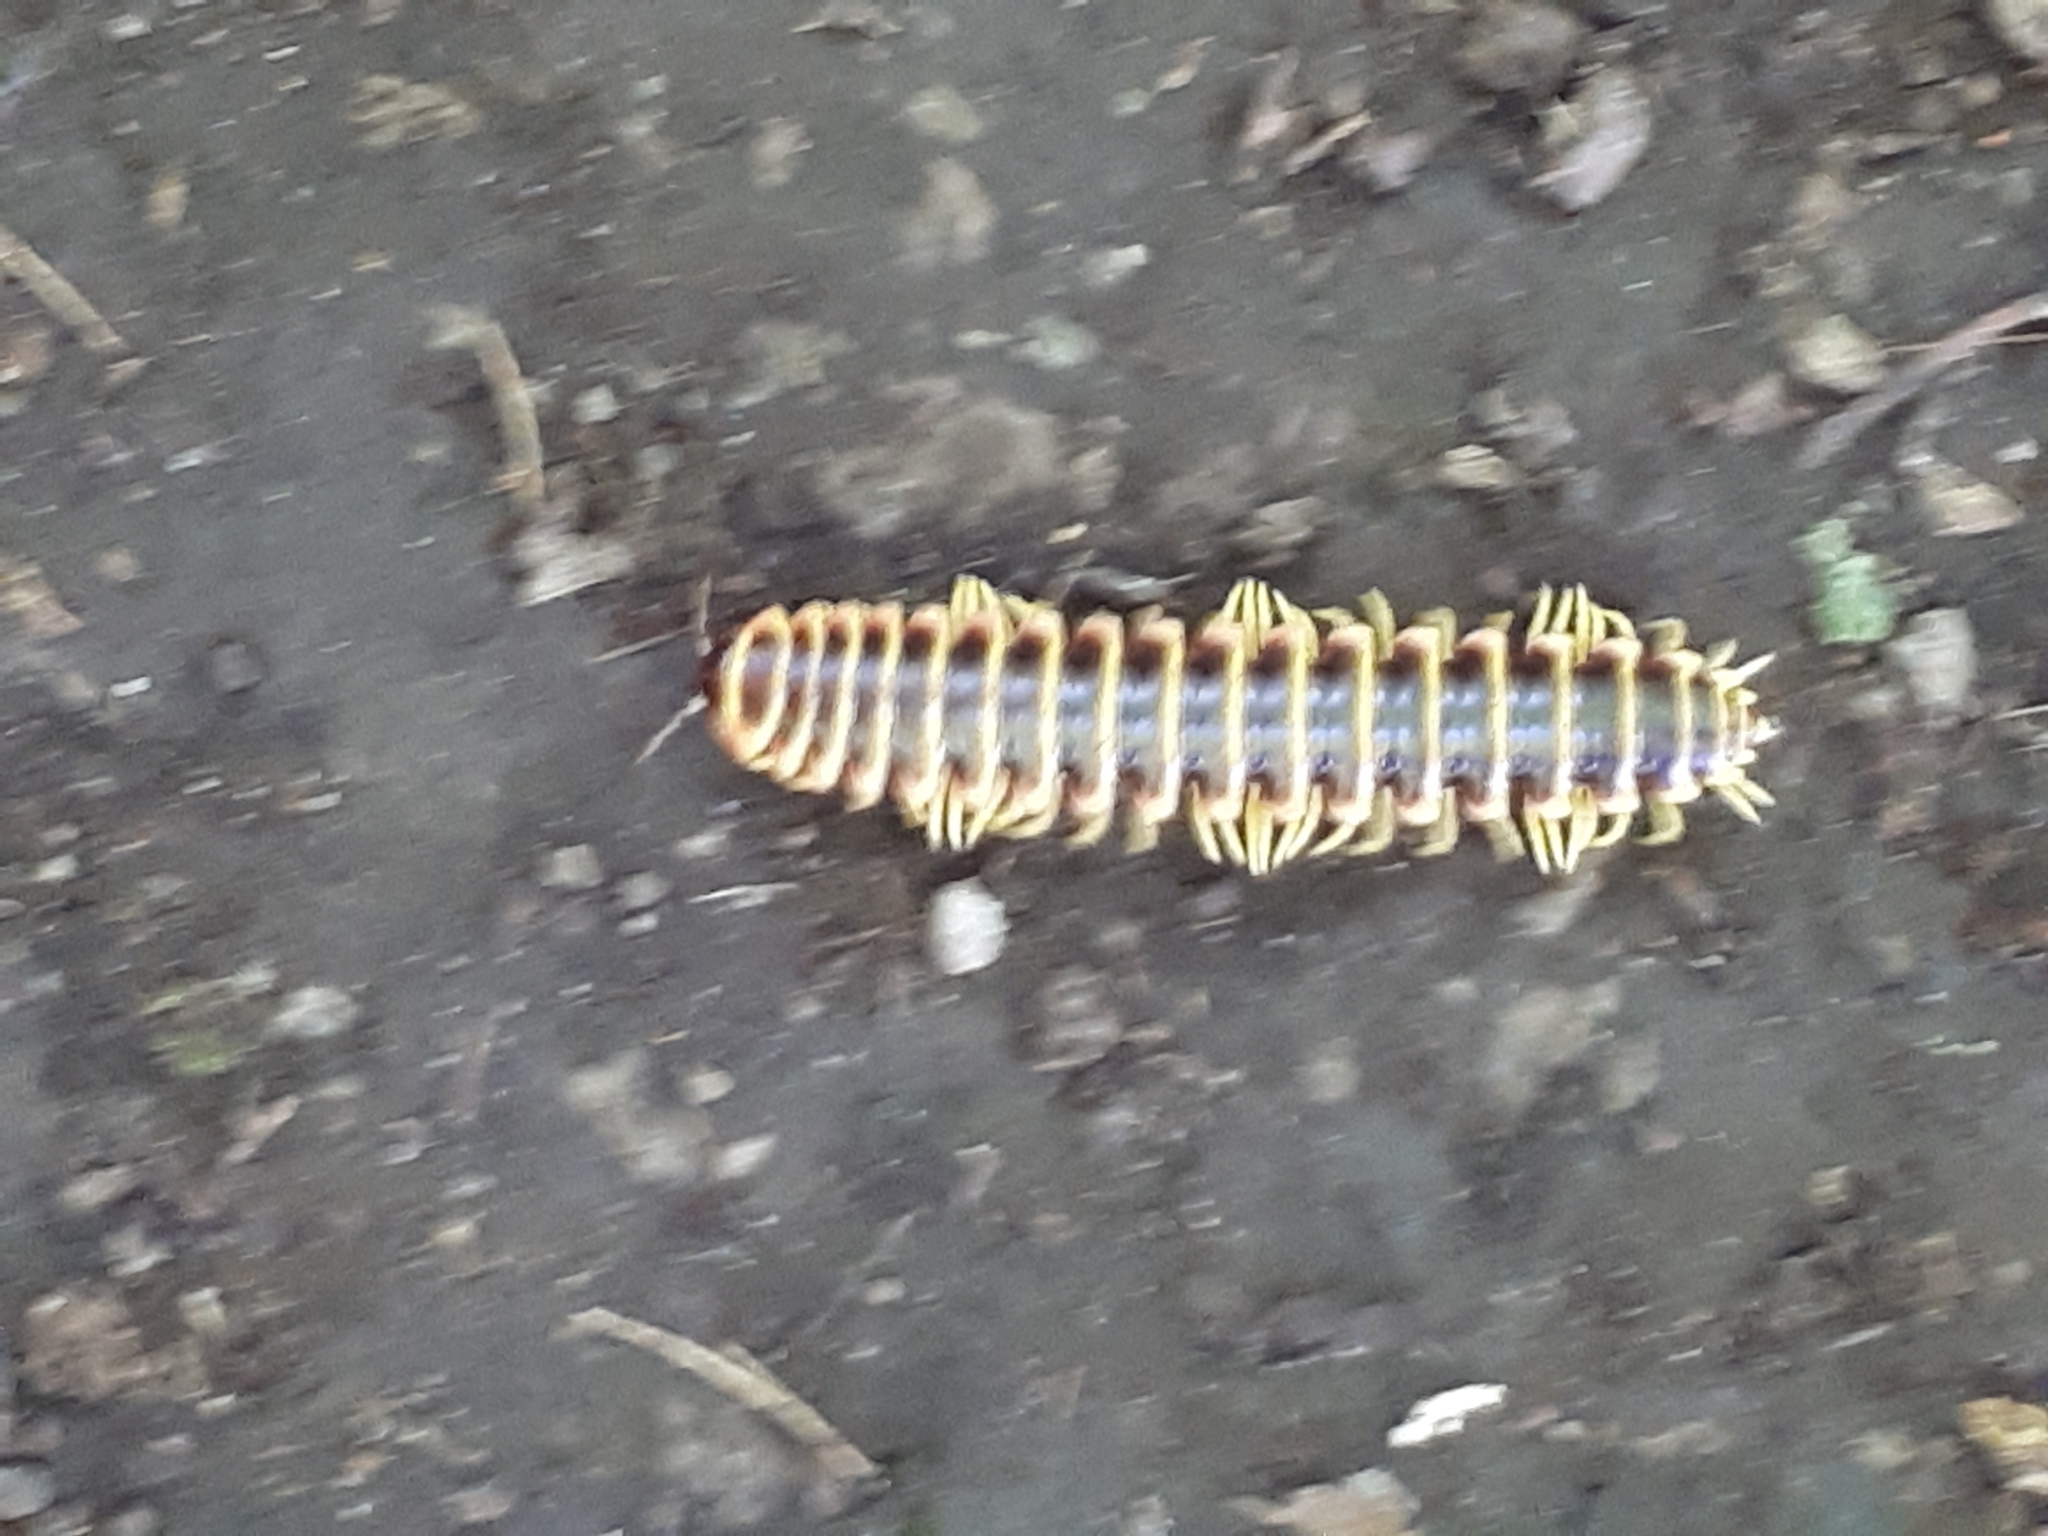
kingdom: Animalia
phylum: Arthropoda
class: Diplopoda
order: Polydesmida
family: Xystodesmidae
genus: Apheloria
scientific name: Apheloria virginiensis
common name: Black-and-gold flat millipede
